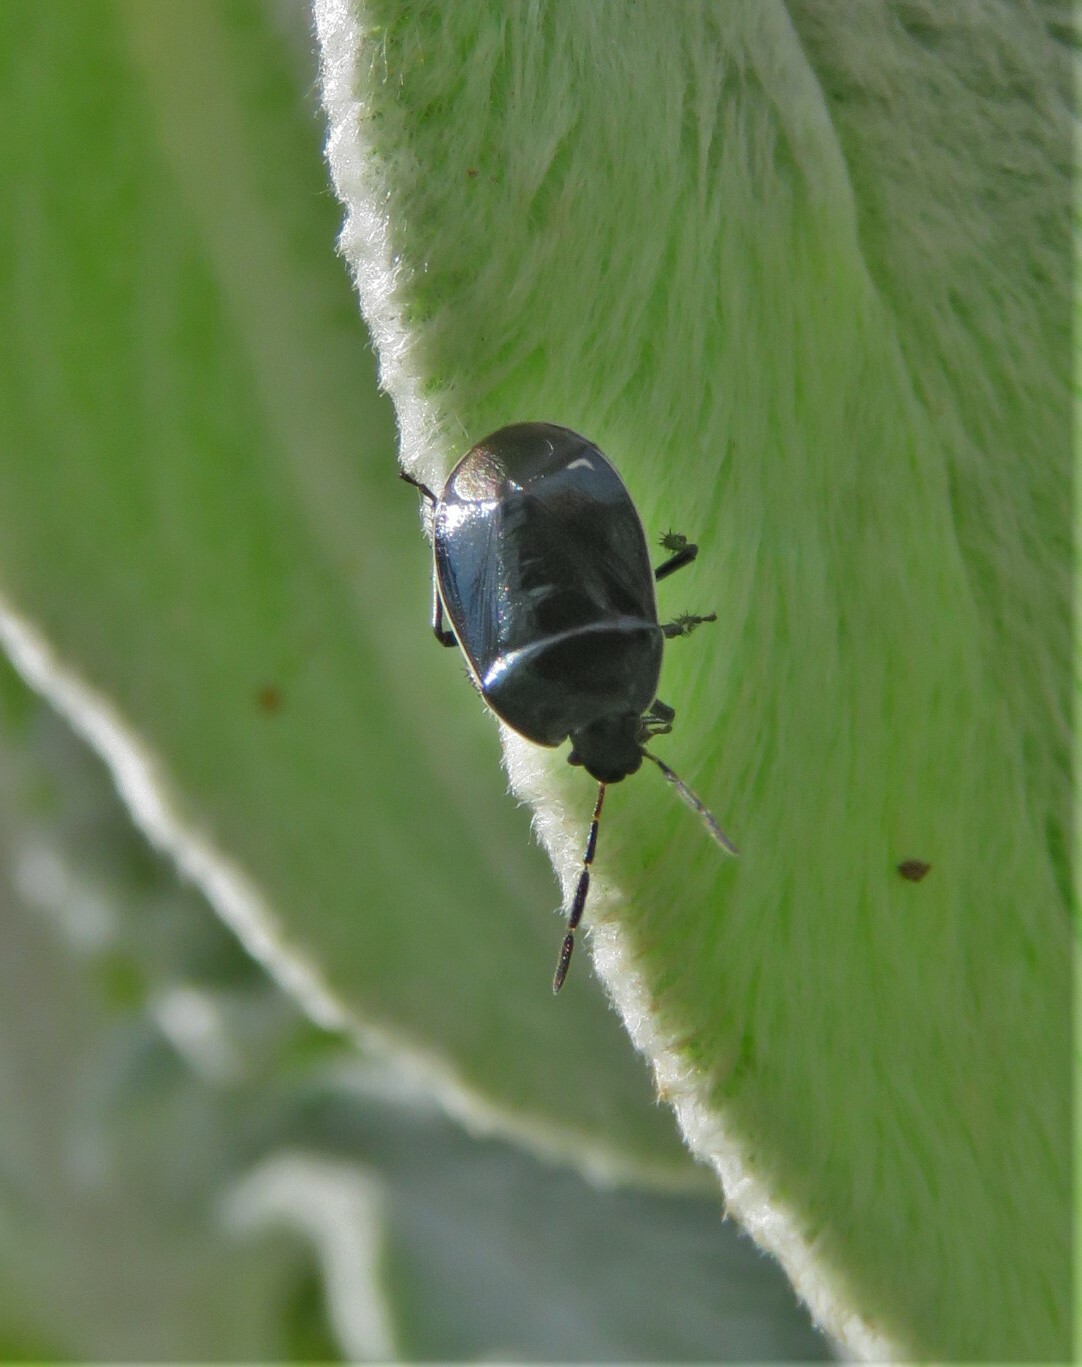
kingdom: Animalia
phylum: Arthropoda
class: Insecta
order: Hemiptera
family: Cydnidae
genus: Sehirus
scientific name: Sehirus cinctus
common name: White-margined burrower bug
